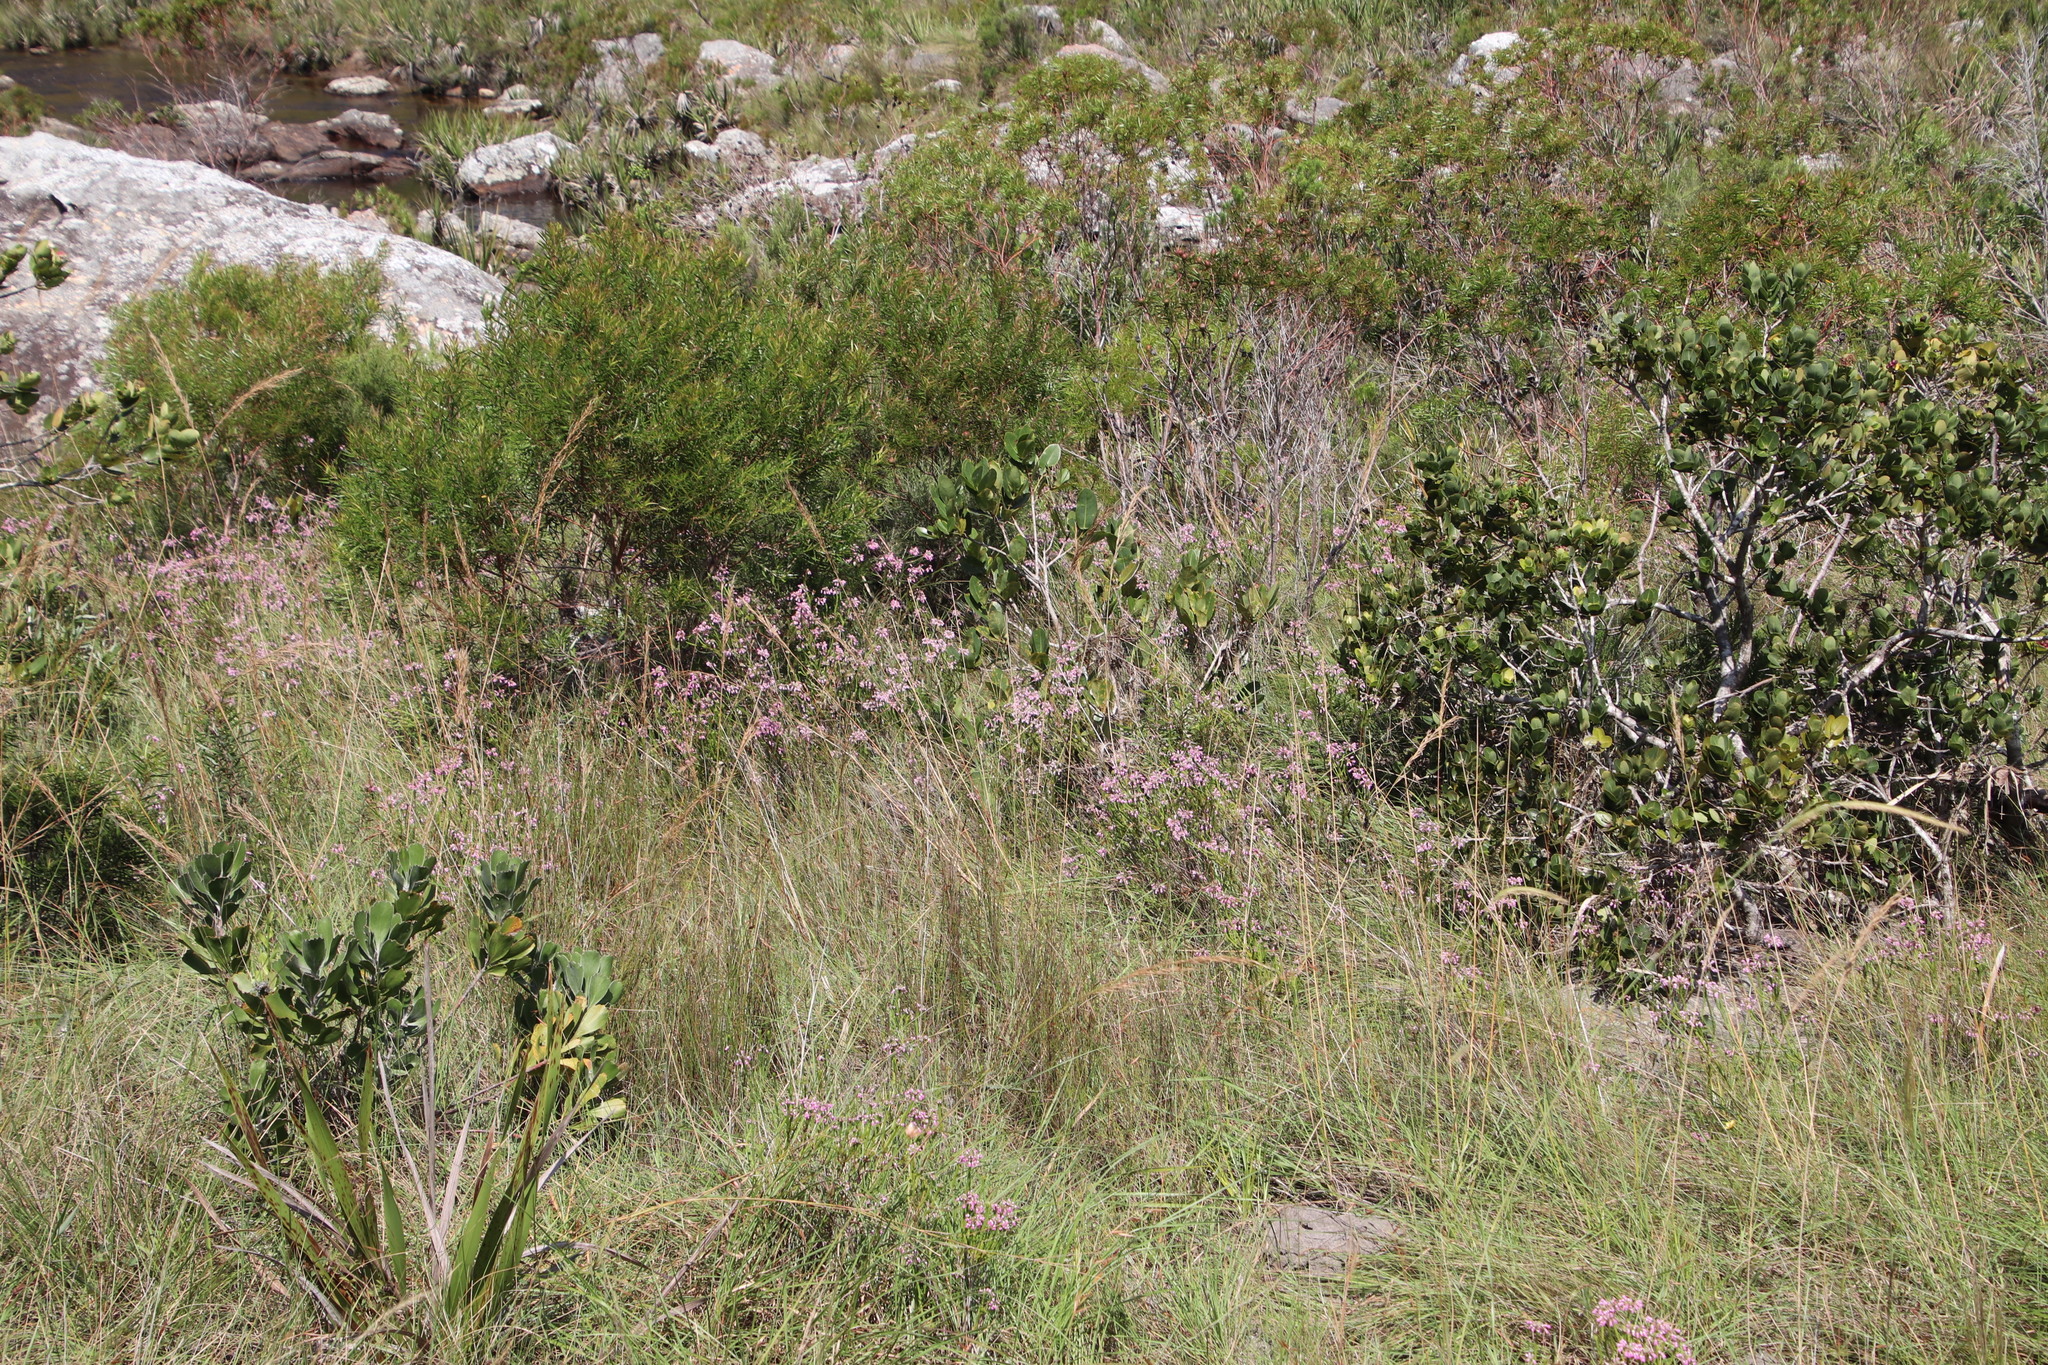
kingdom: Plantae
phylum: Tracheophyta
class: Magnoliopsida
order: Ericales
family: Ericaceae
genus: Erica
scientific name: Erica cubica
